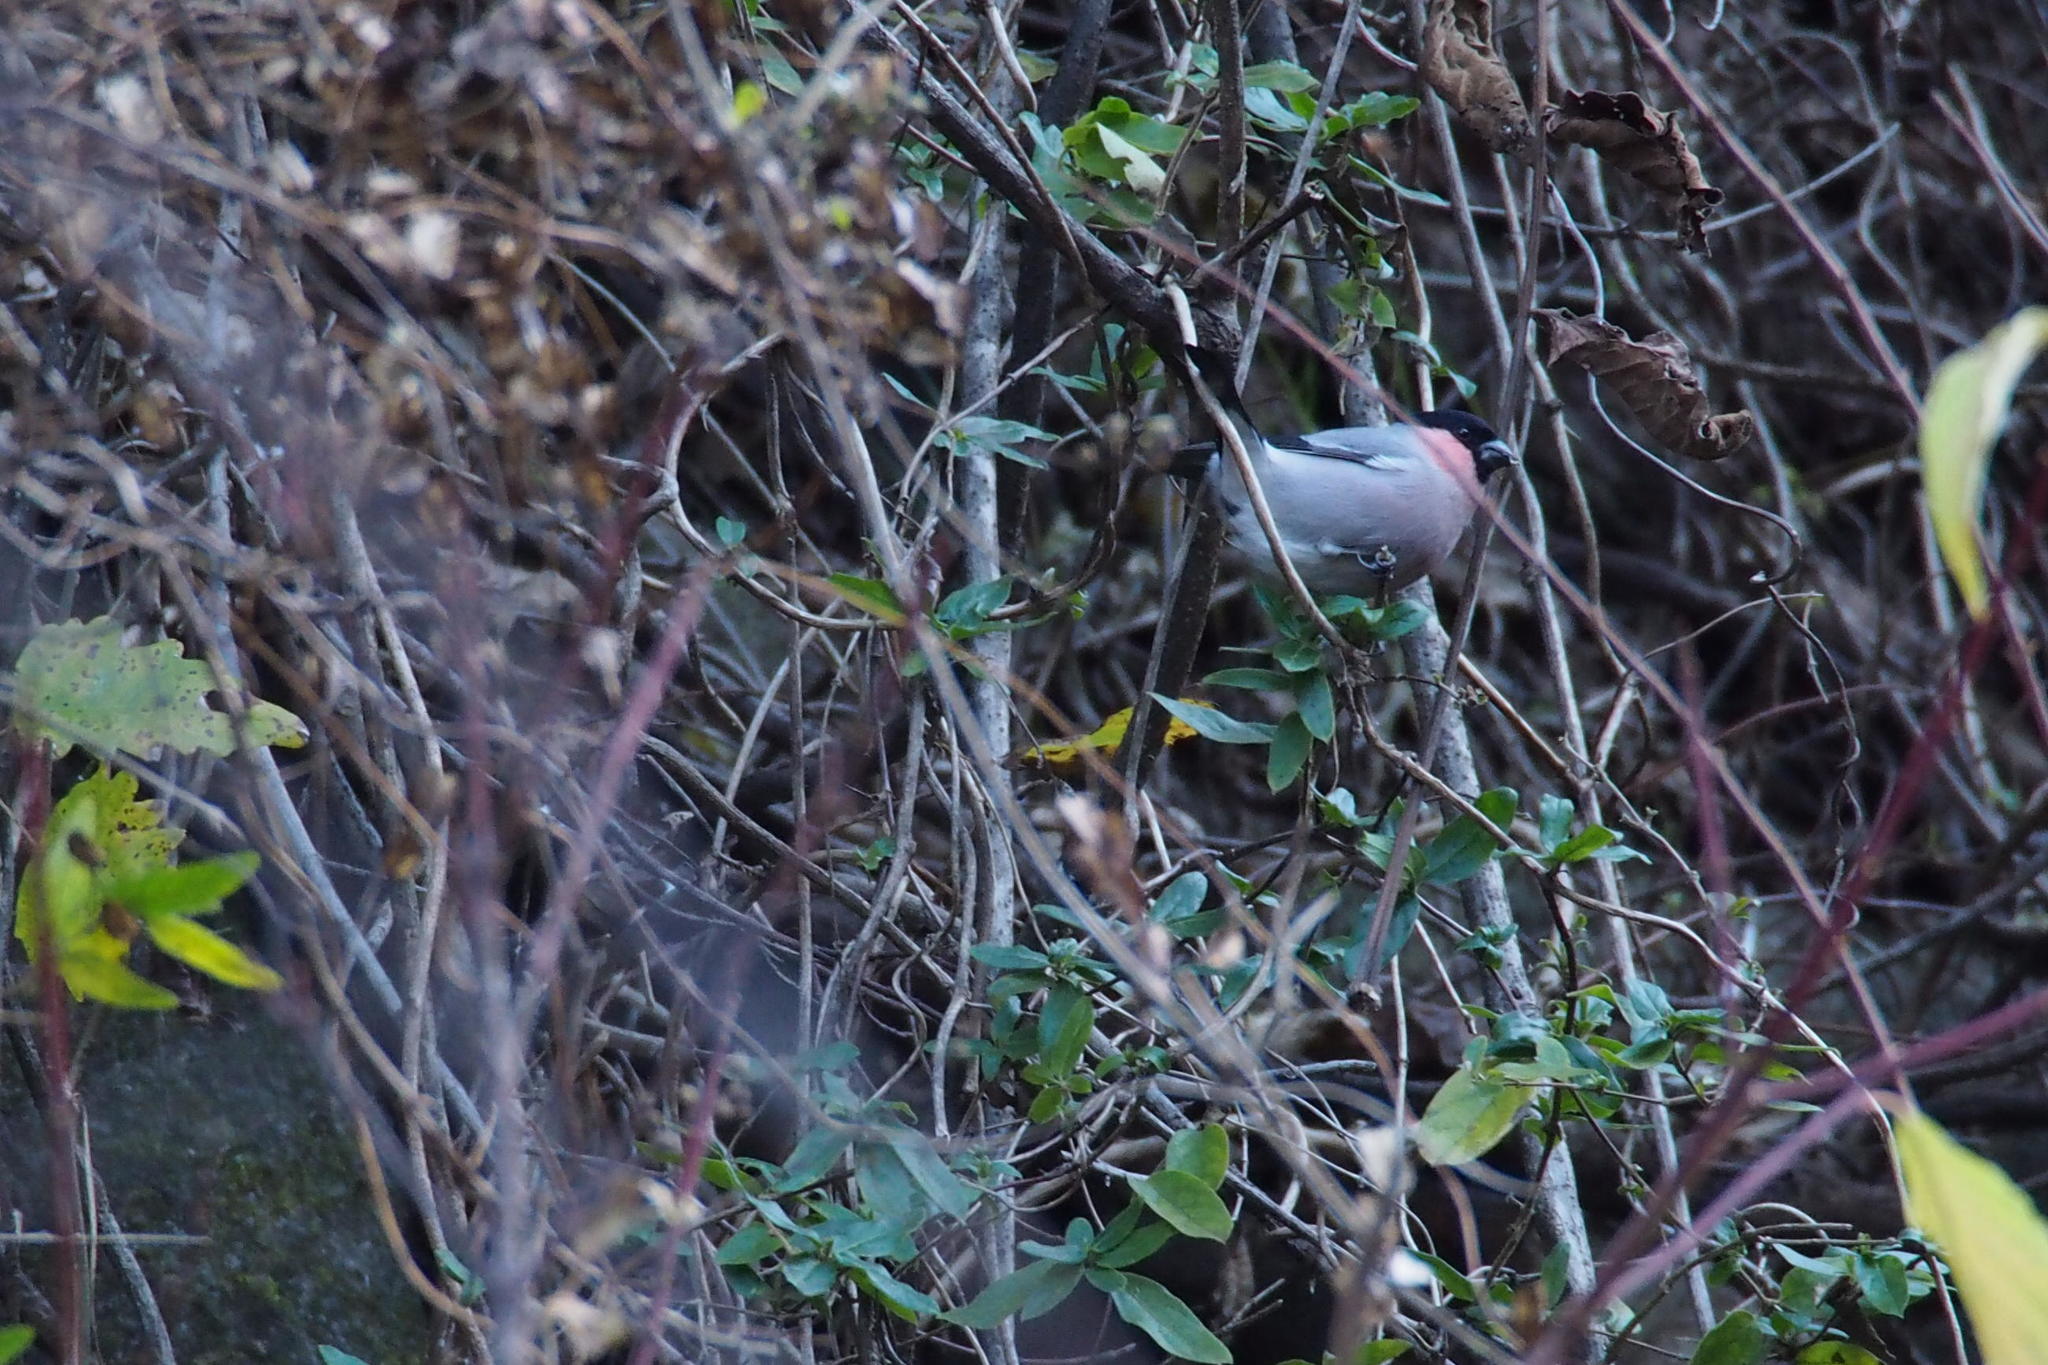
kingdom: Animalia
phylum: Chordata
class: Aves
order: Passeriformes
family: Fringillidae
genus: Pyrrhula
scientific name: Pyrrhula pyrrhula
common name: Eurasian bullfinch
